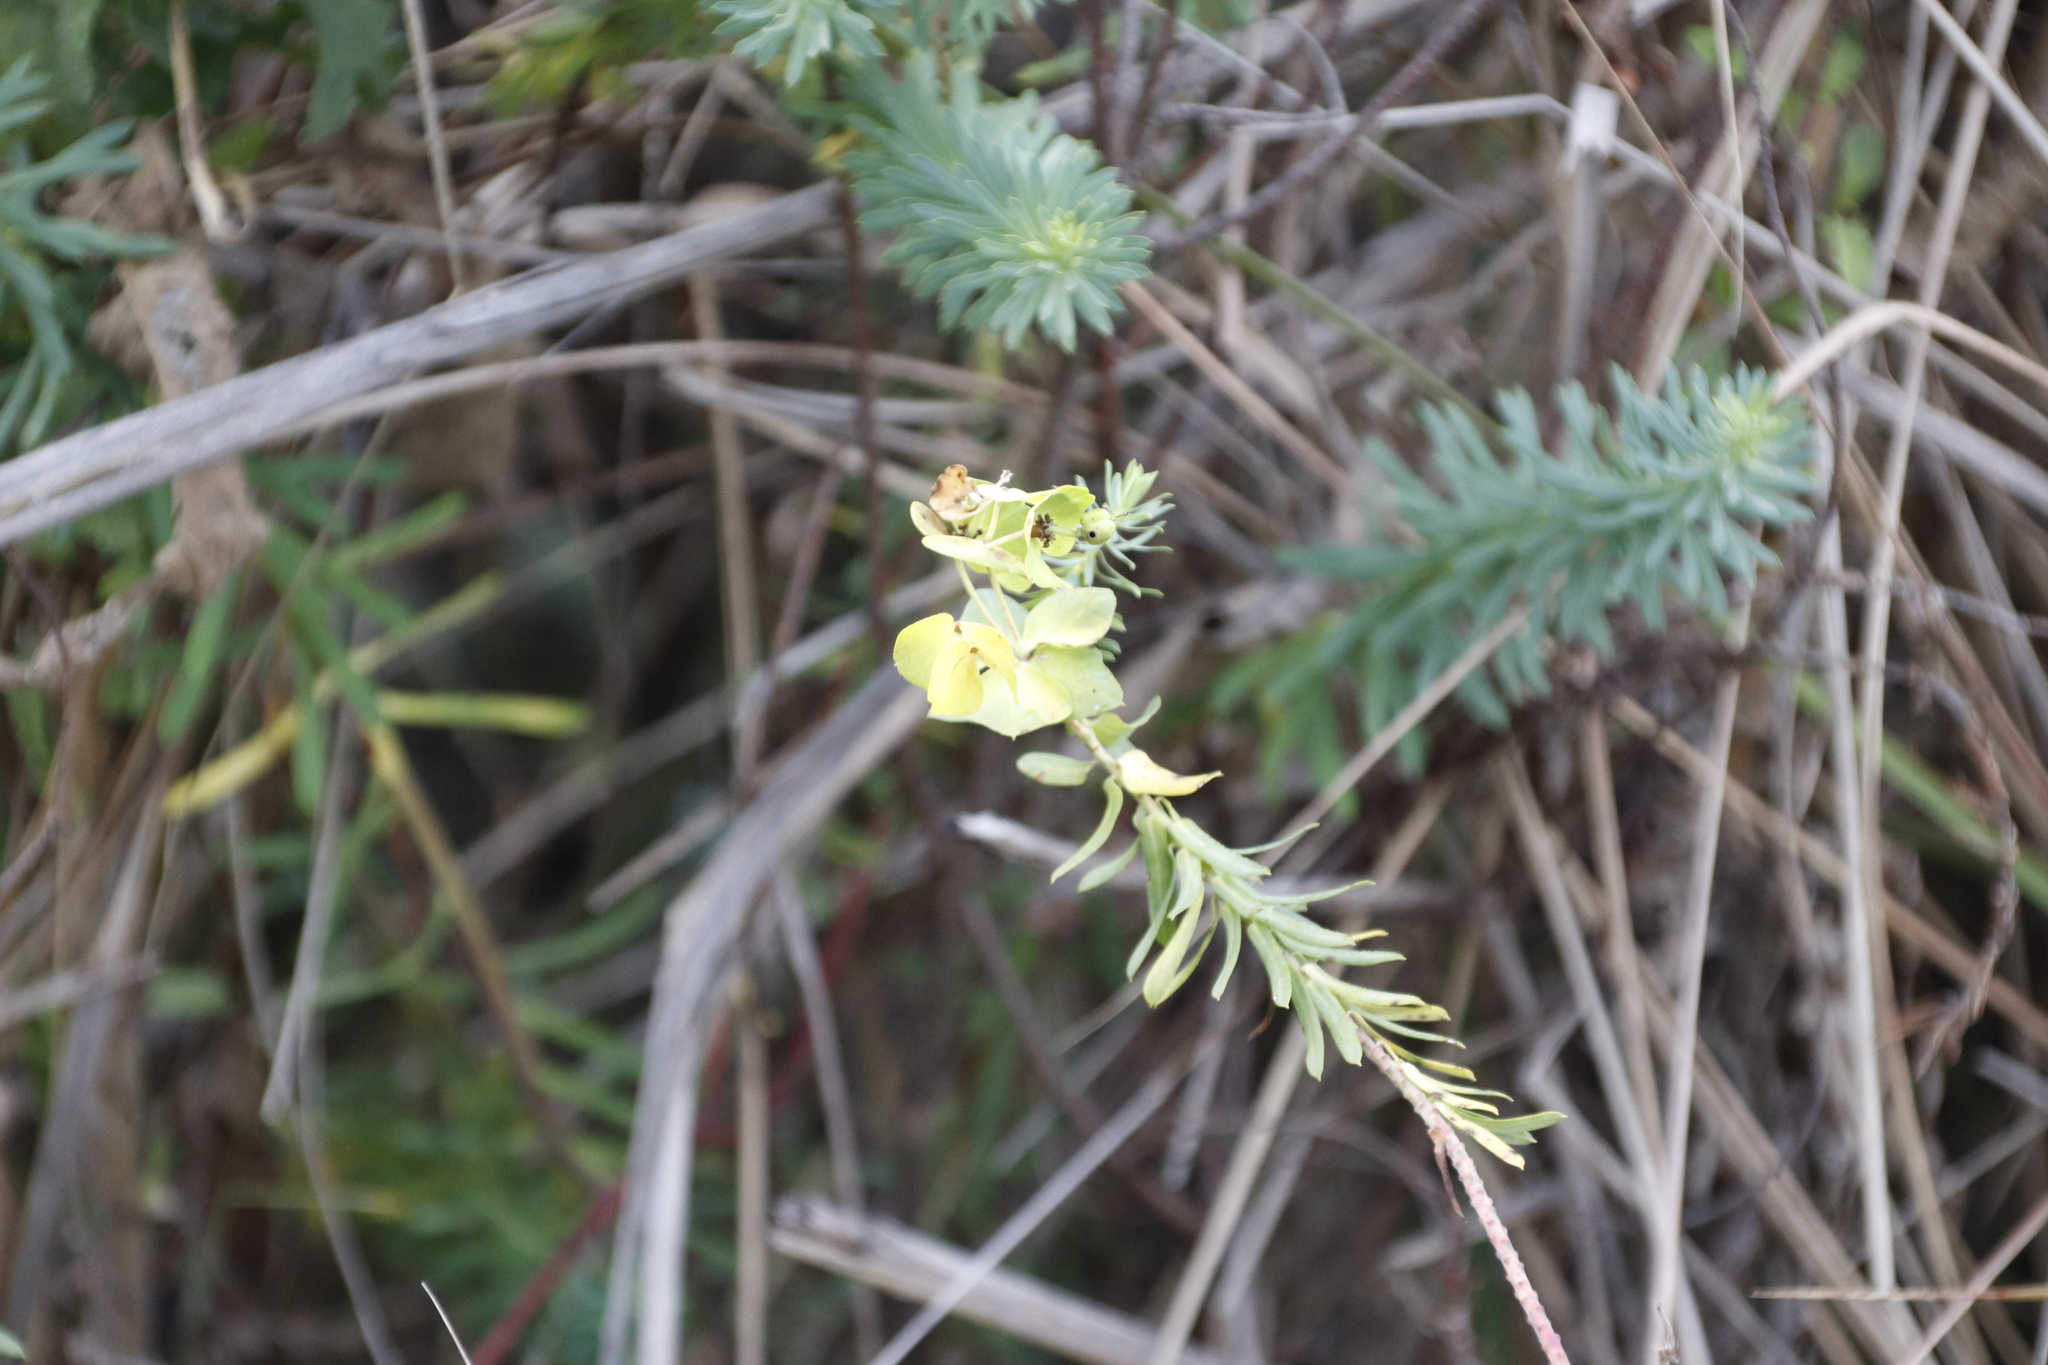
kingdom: Plantae
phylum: Tracheophyta
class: Magnoliopsida
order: Malpighiales
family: Euphorbiaceae
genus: Euphorbia
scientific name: Euphorbia natalensis
